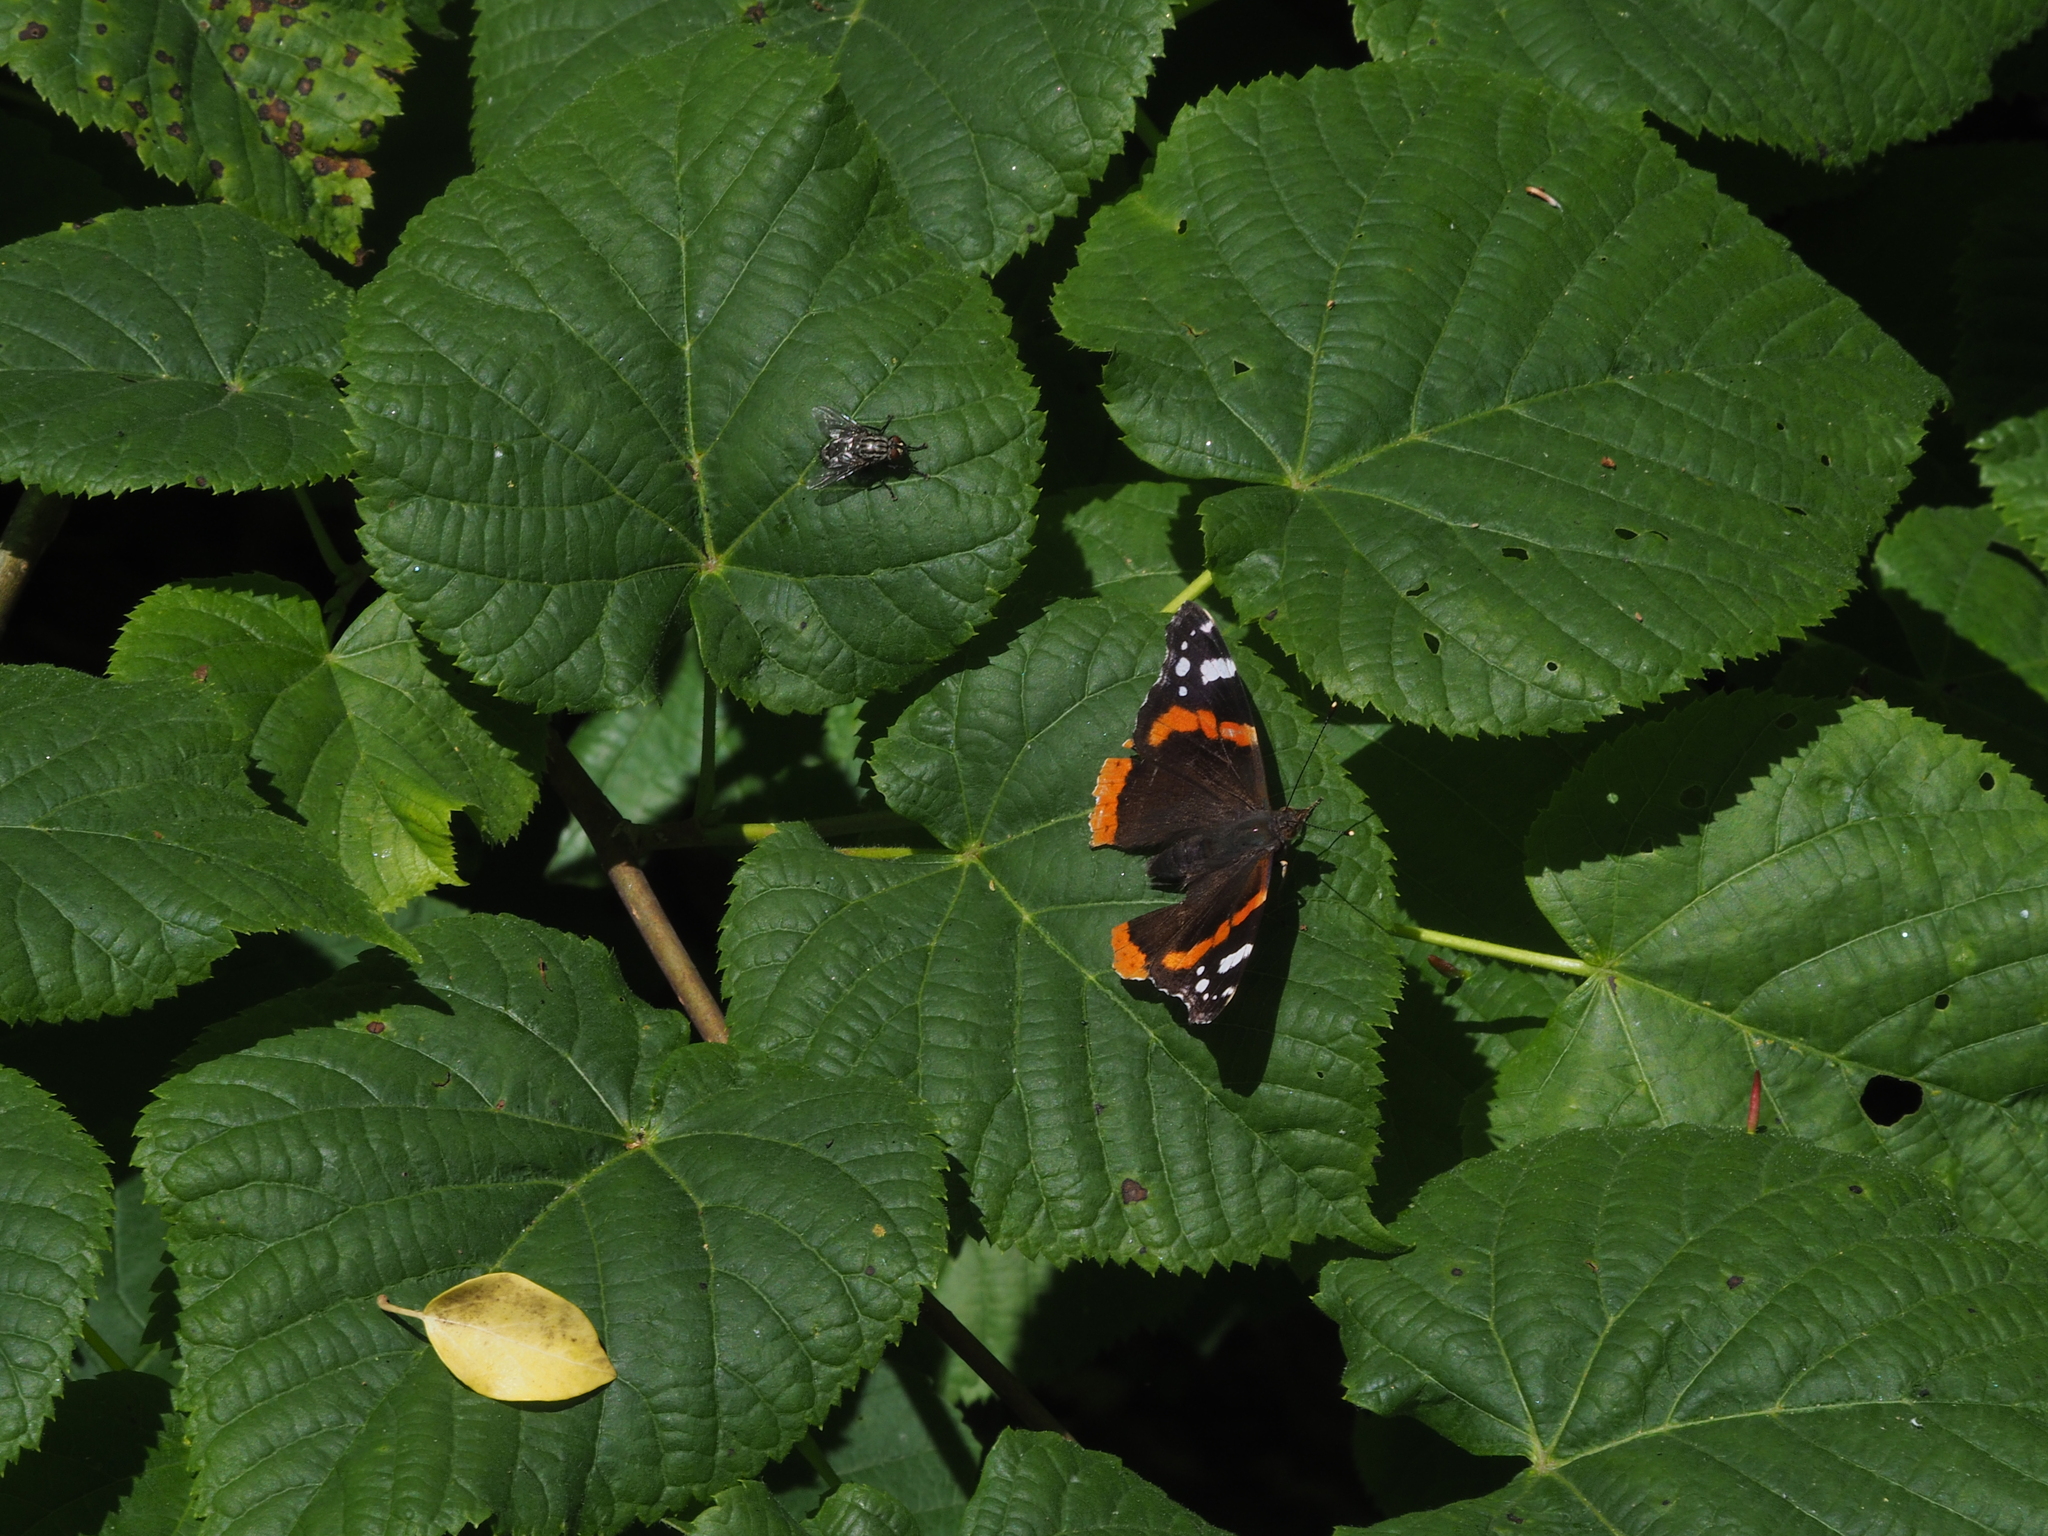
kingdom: Animalia
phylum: Arthropoda
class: Insecta
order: Lepidoptera
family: Nymphalidae
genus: Vanessa
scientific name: Vanessa atalanta
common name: Red admiral
